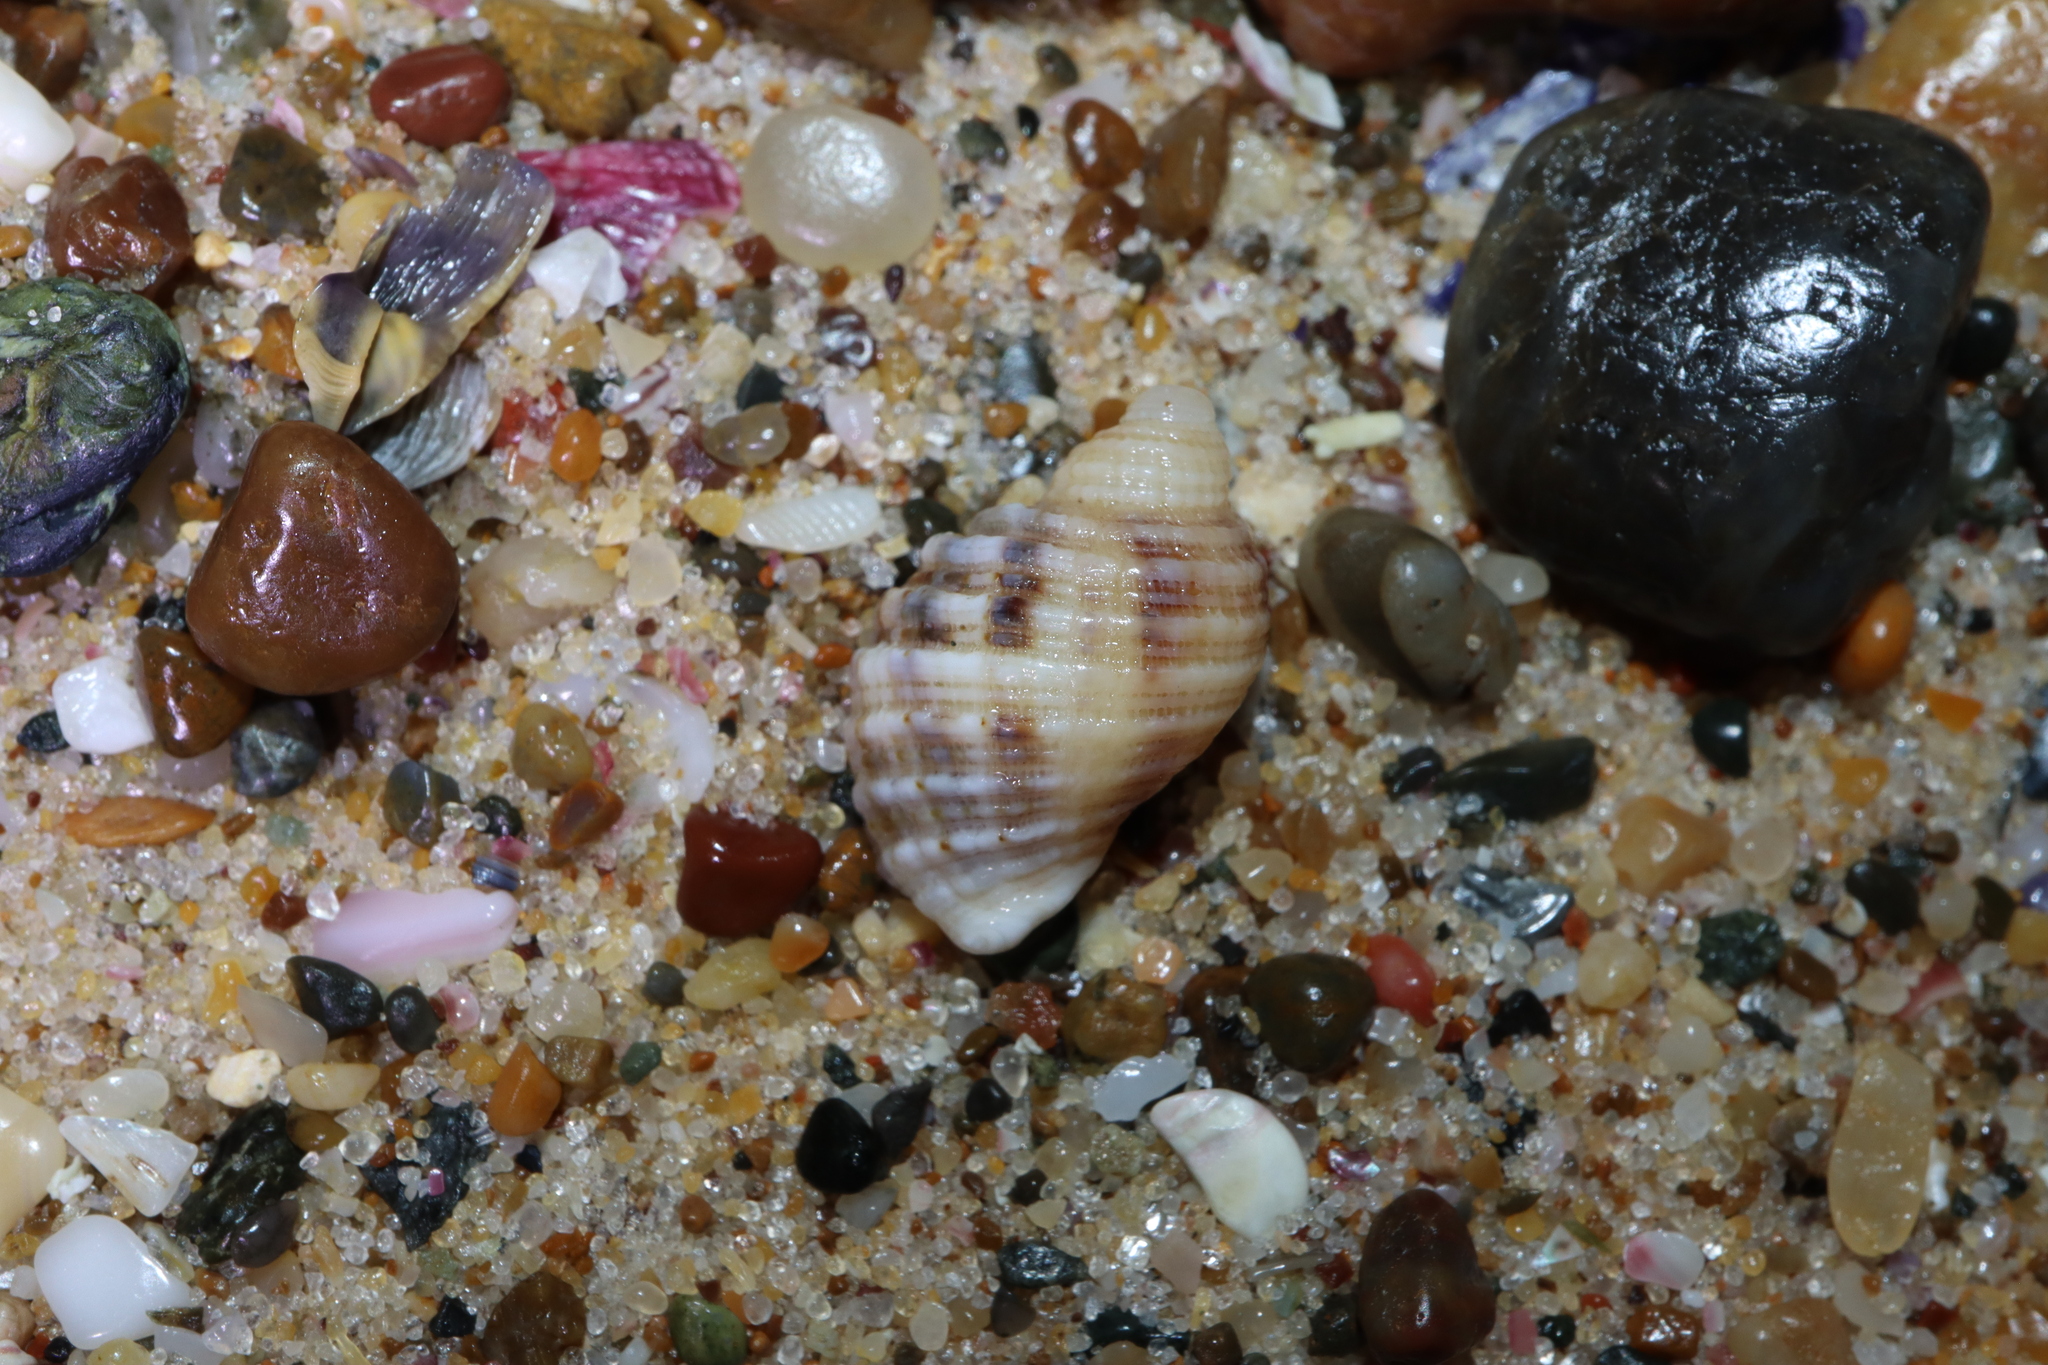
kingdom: Animalia
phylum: Mollusca
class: Gastropoda
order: Neogastropoda
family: Muricidae
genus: Dicathais
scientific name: Dicathais orbita
